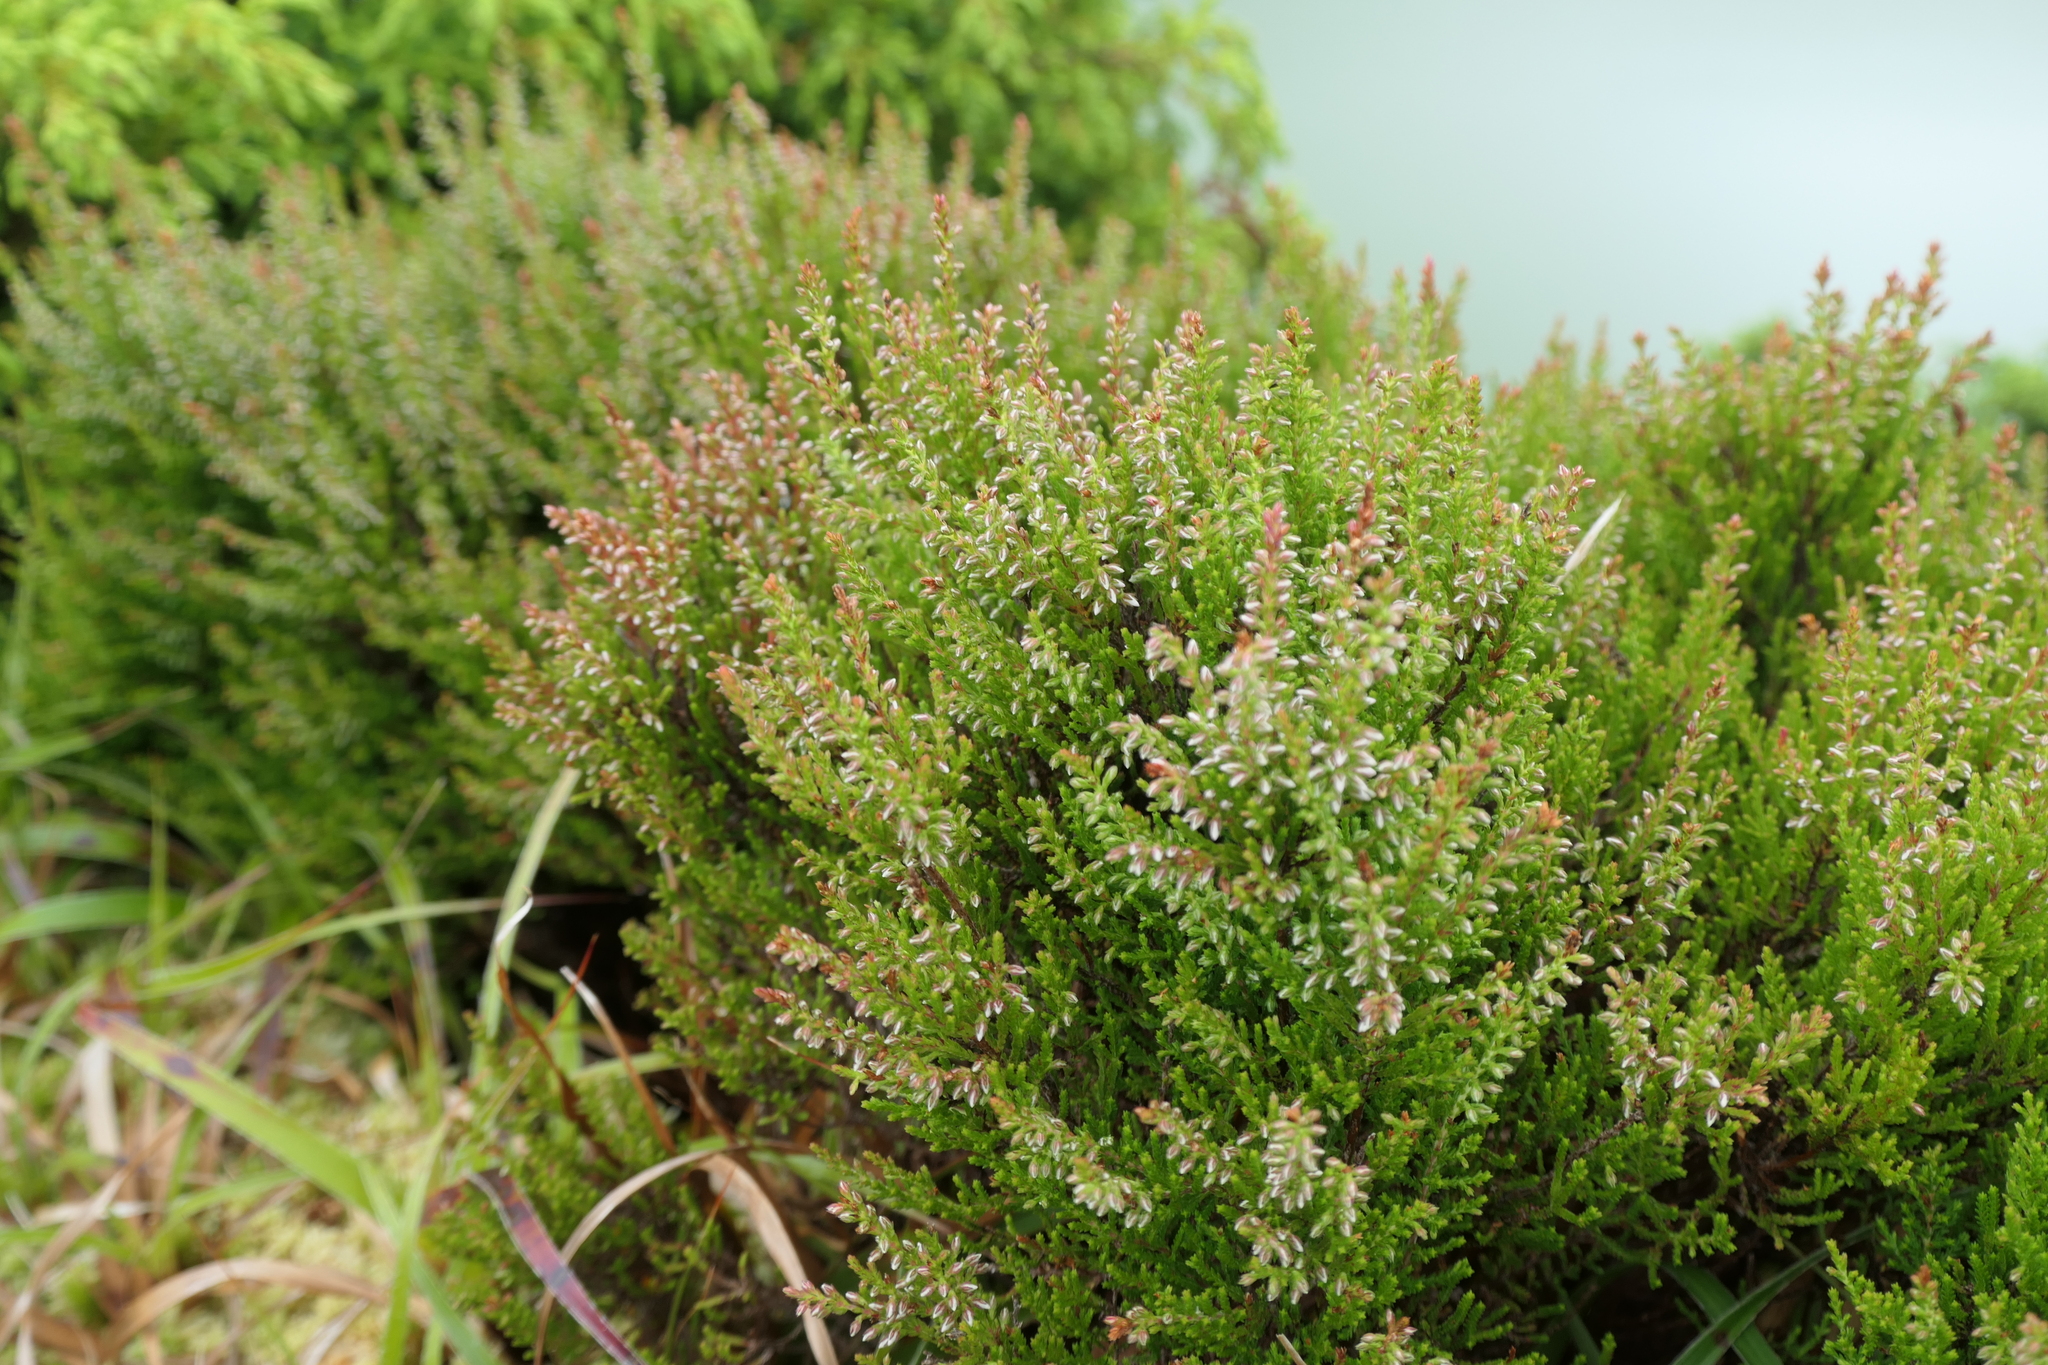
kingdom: Plantae
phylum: Tracheophyta
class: Magnoliopsida
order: Ericales
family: Ericaceae
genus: Calluna
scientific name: Calluna vulgaris
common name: Heather
